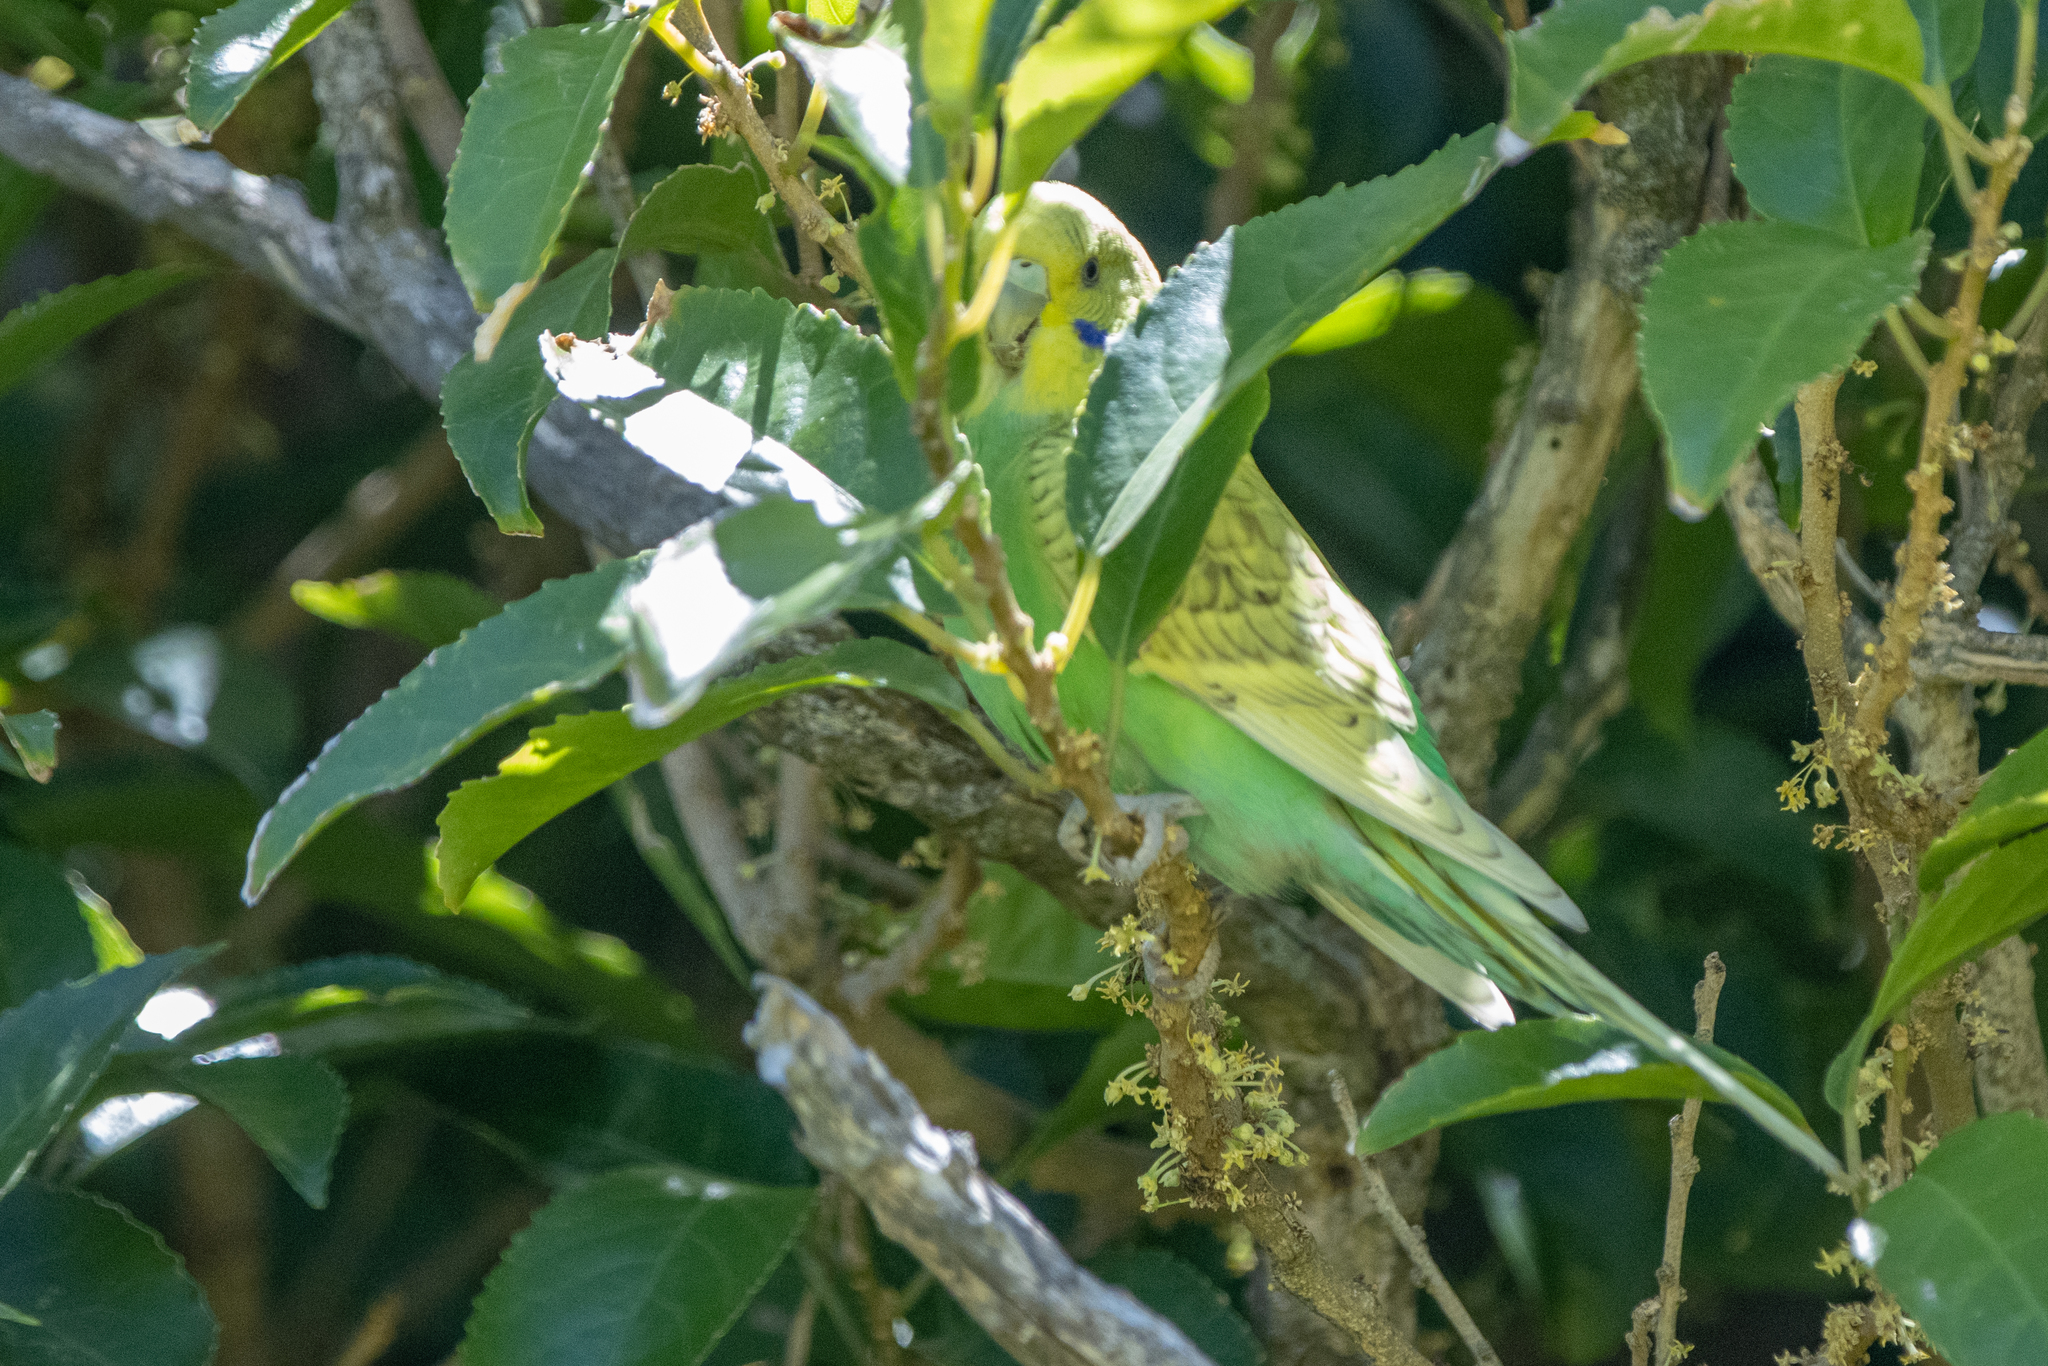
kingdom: Animalia
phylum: Chordata
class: Aves
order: Psittaciformes
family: Psittacidae
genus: Melopsittacus
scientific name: Melopsittacus undulatus
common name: Budgerigar
